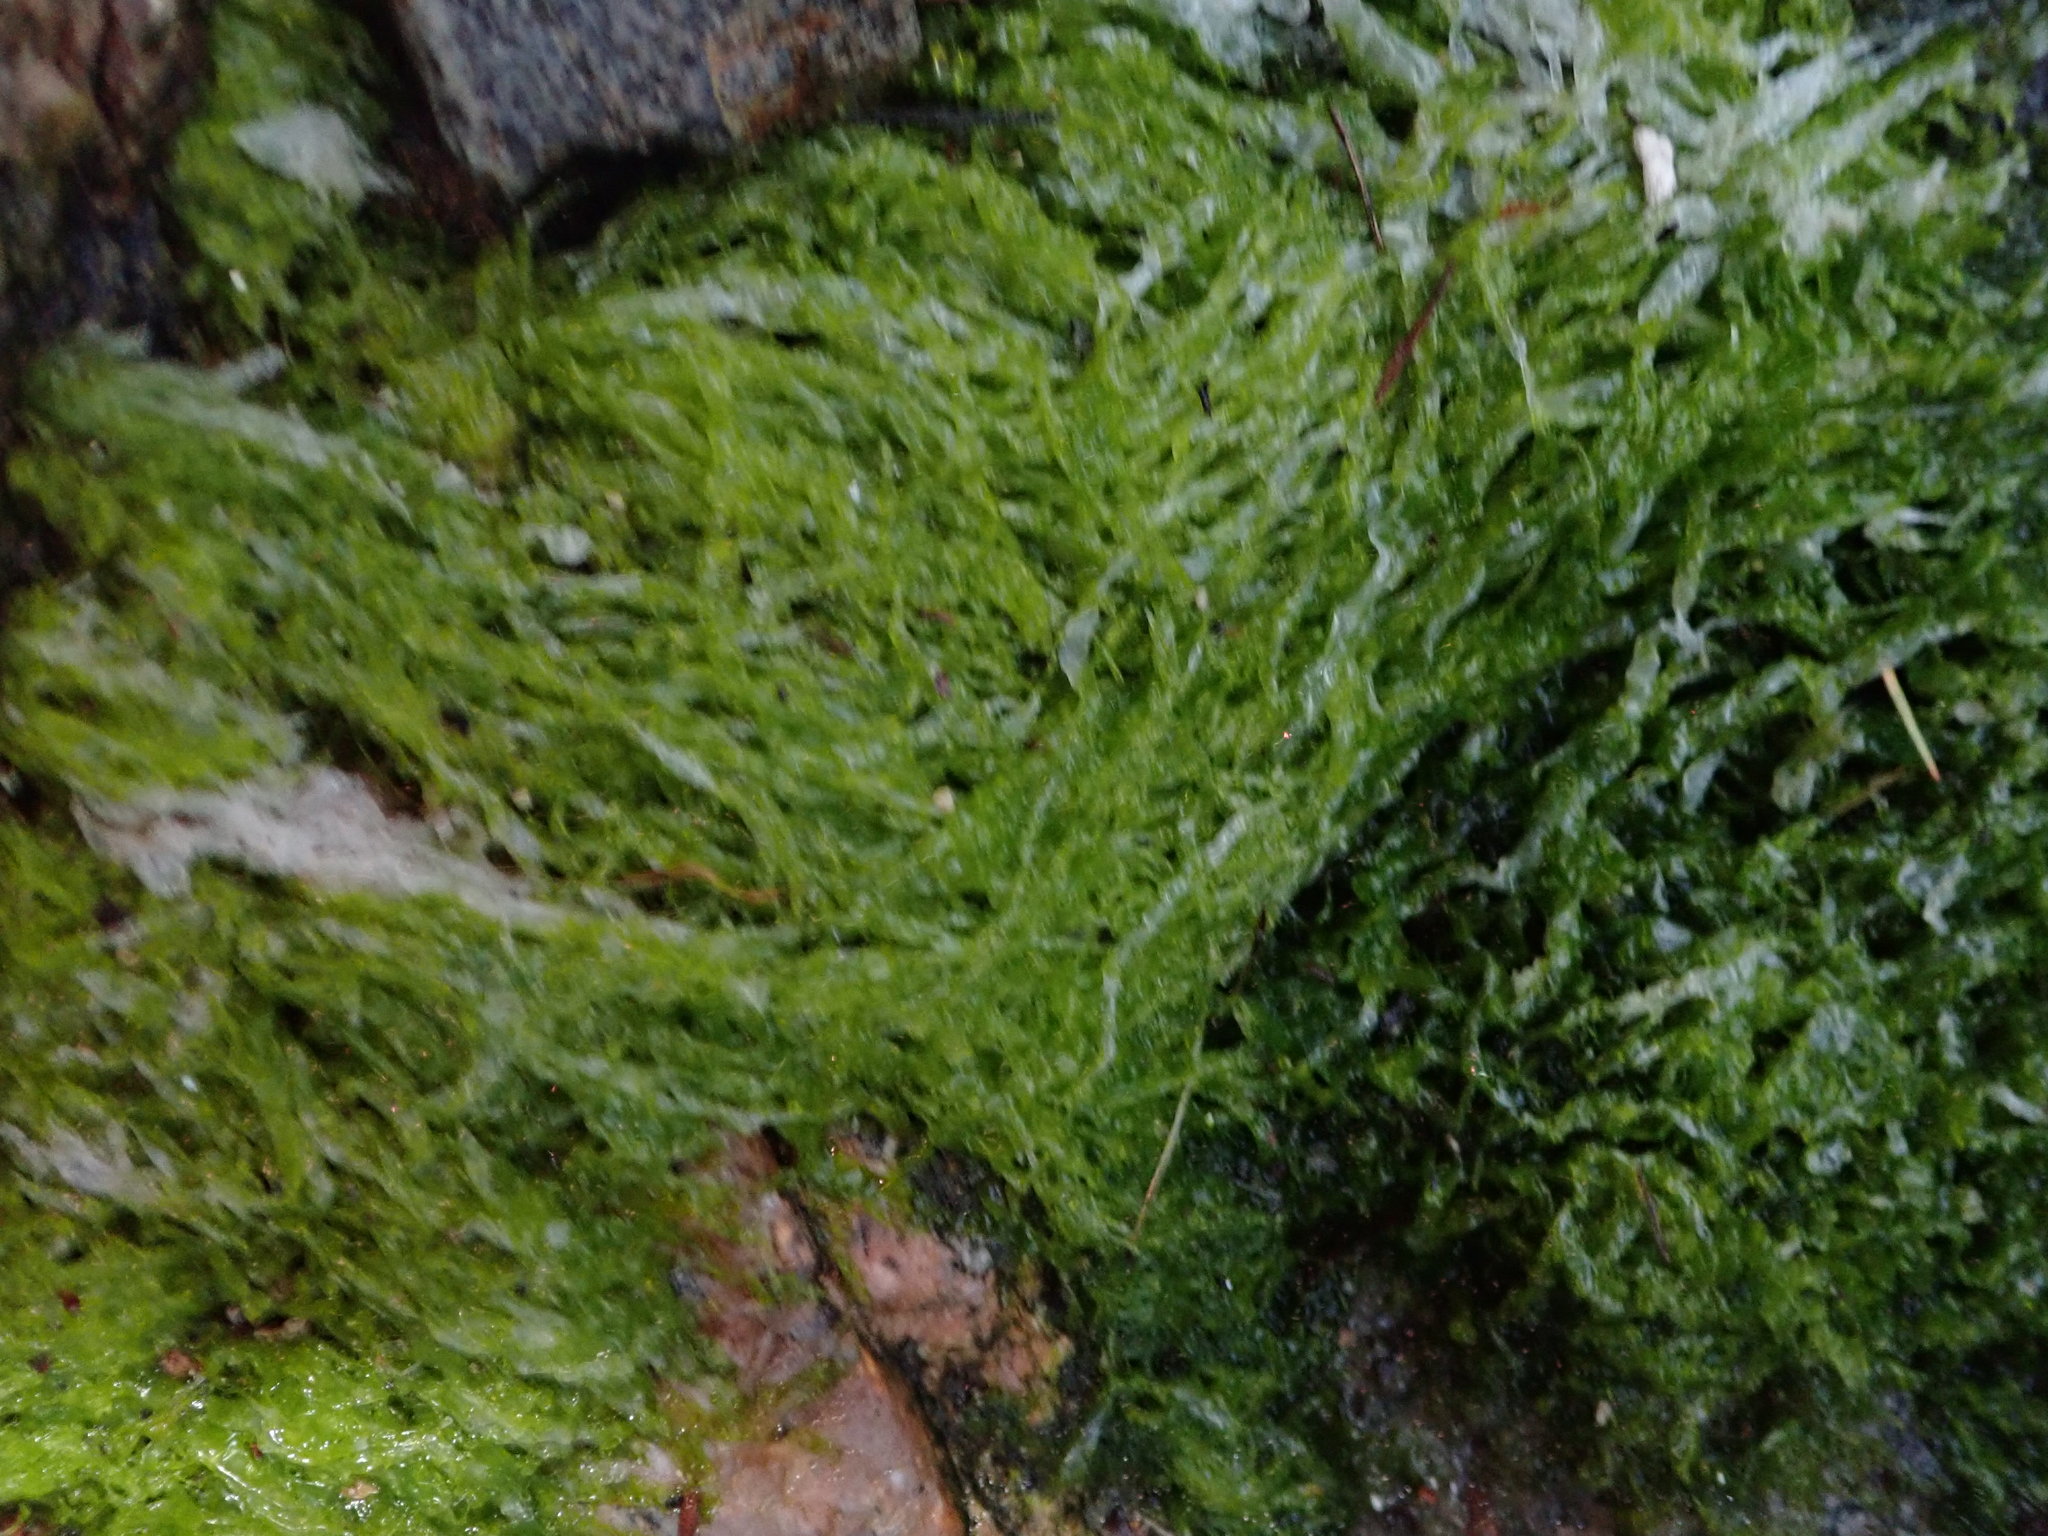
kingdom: Plantae
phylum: Chlorophyta
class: Ulvophyceae
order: Ulvales
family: Ulvaceae
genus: Ulva
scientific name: Ulva intestinalis
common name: Gut weed
